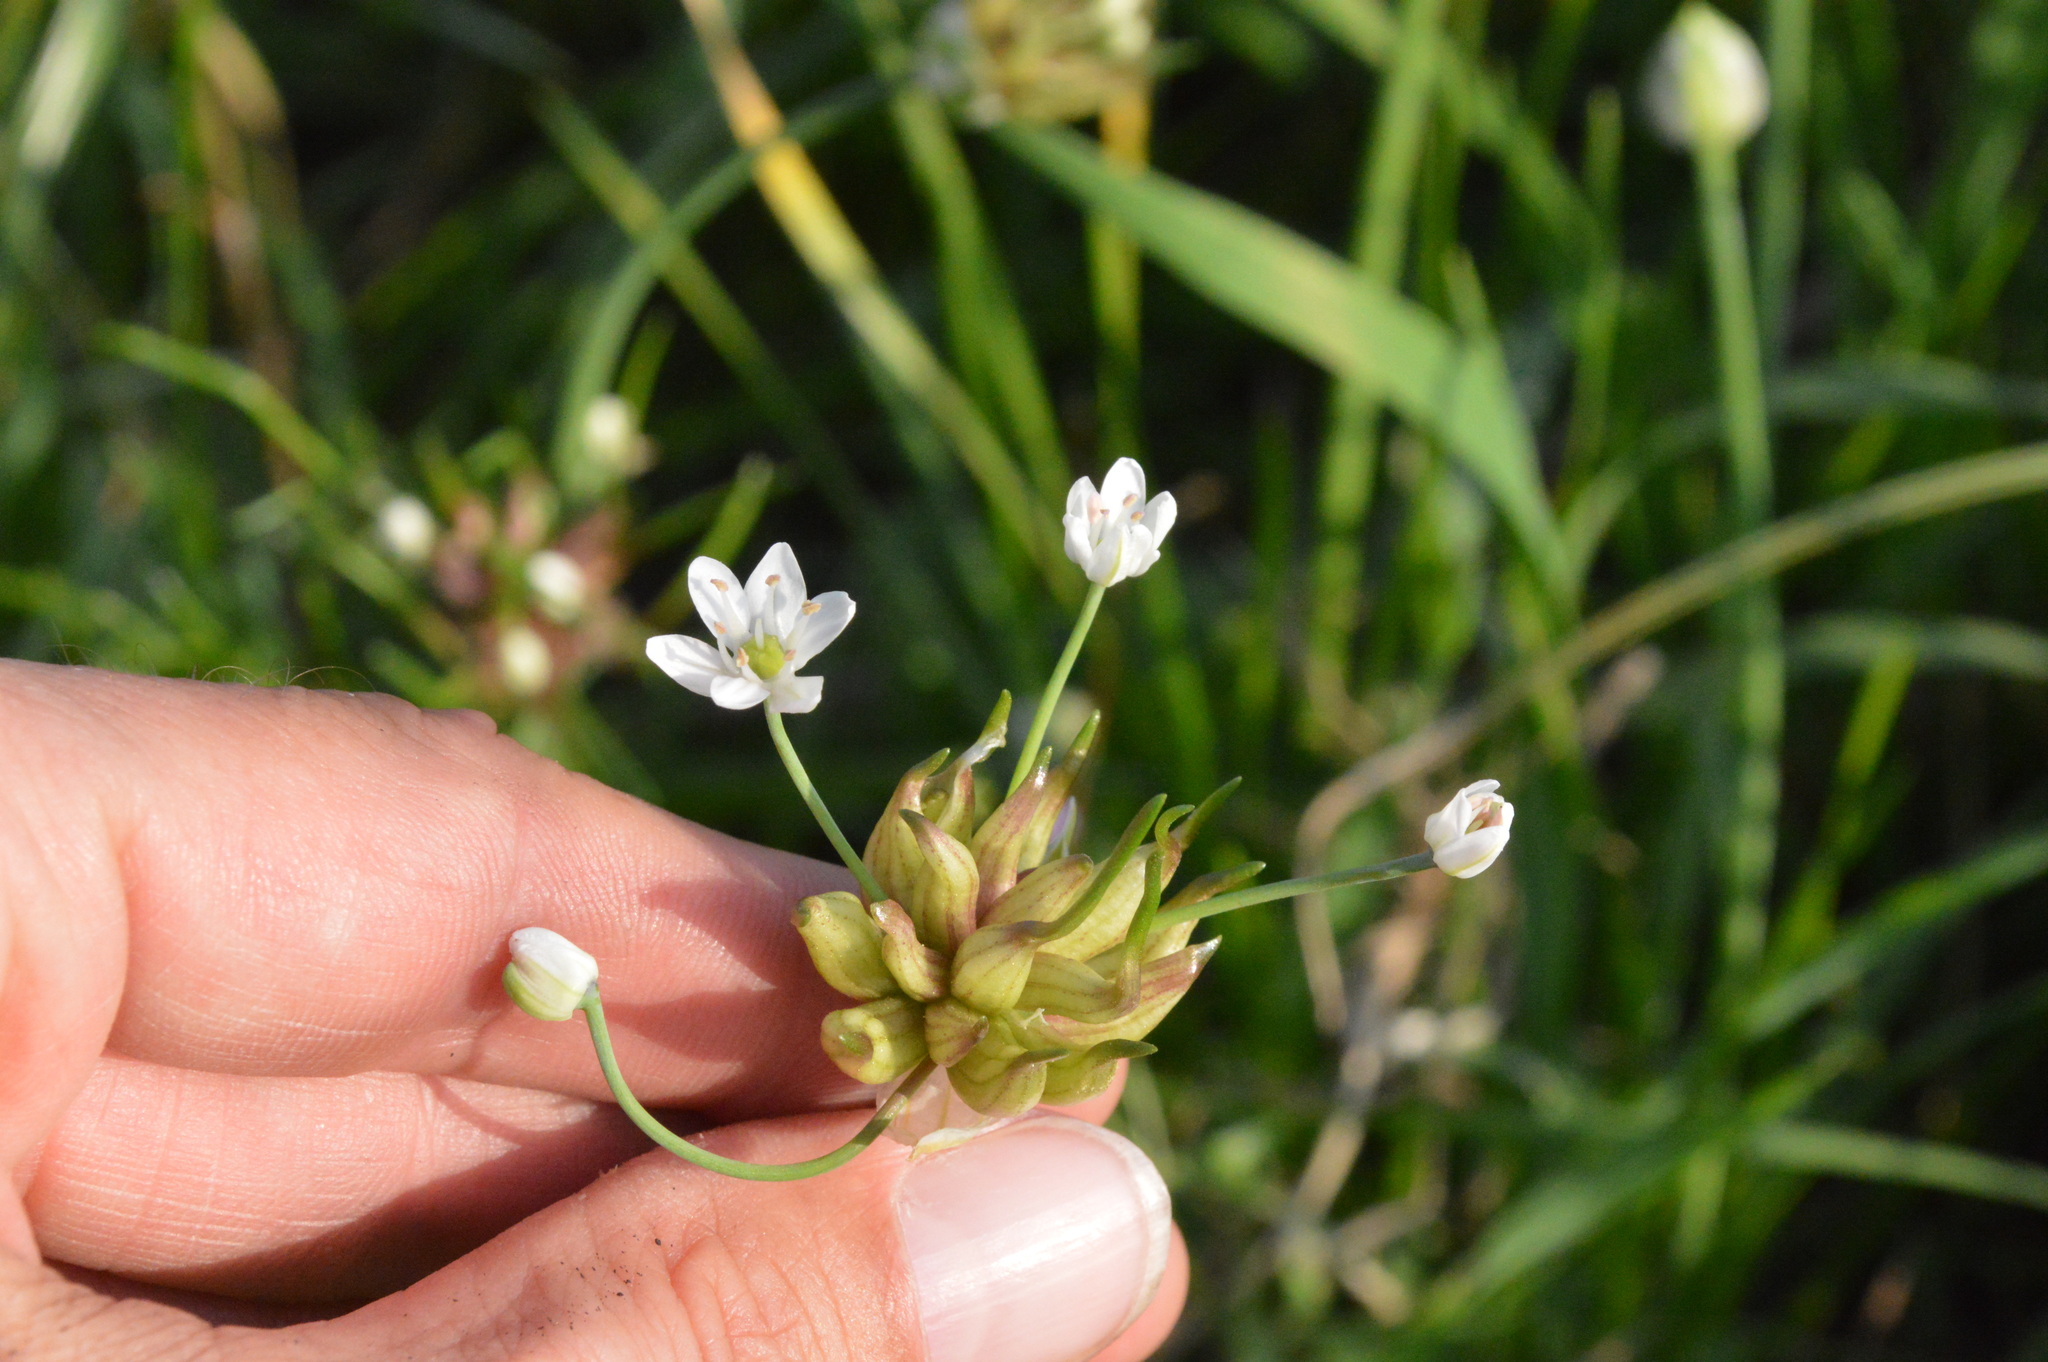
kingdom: Plantae
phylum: Tracheophyta
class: Liliopsida
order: Asparagales
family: Amaryllidaceae
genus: Allium
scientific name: Allium canadense
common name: Meadow garlic
